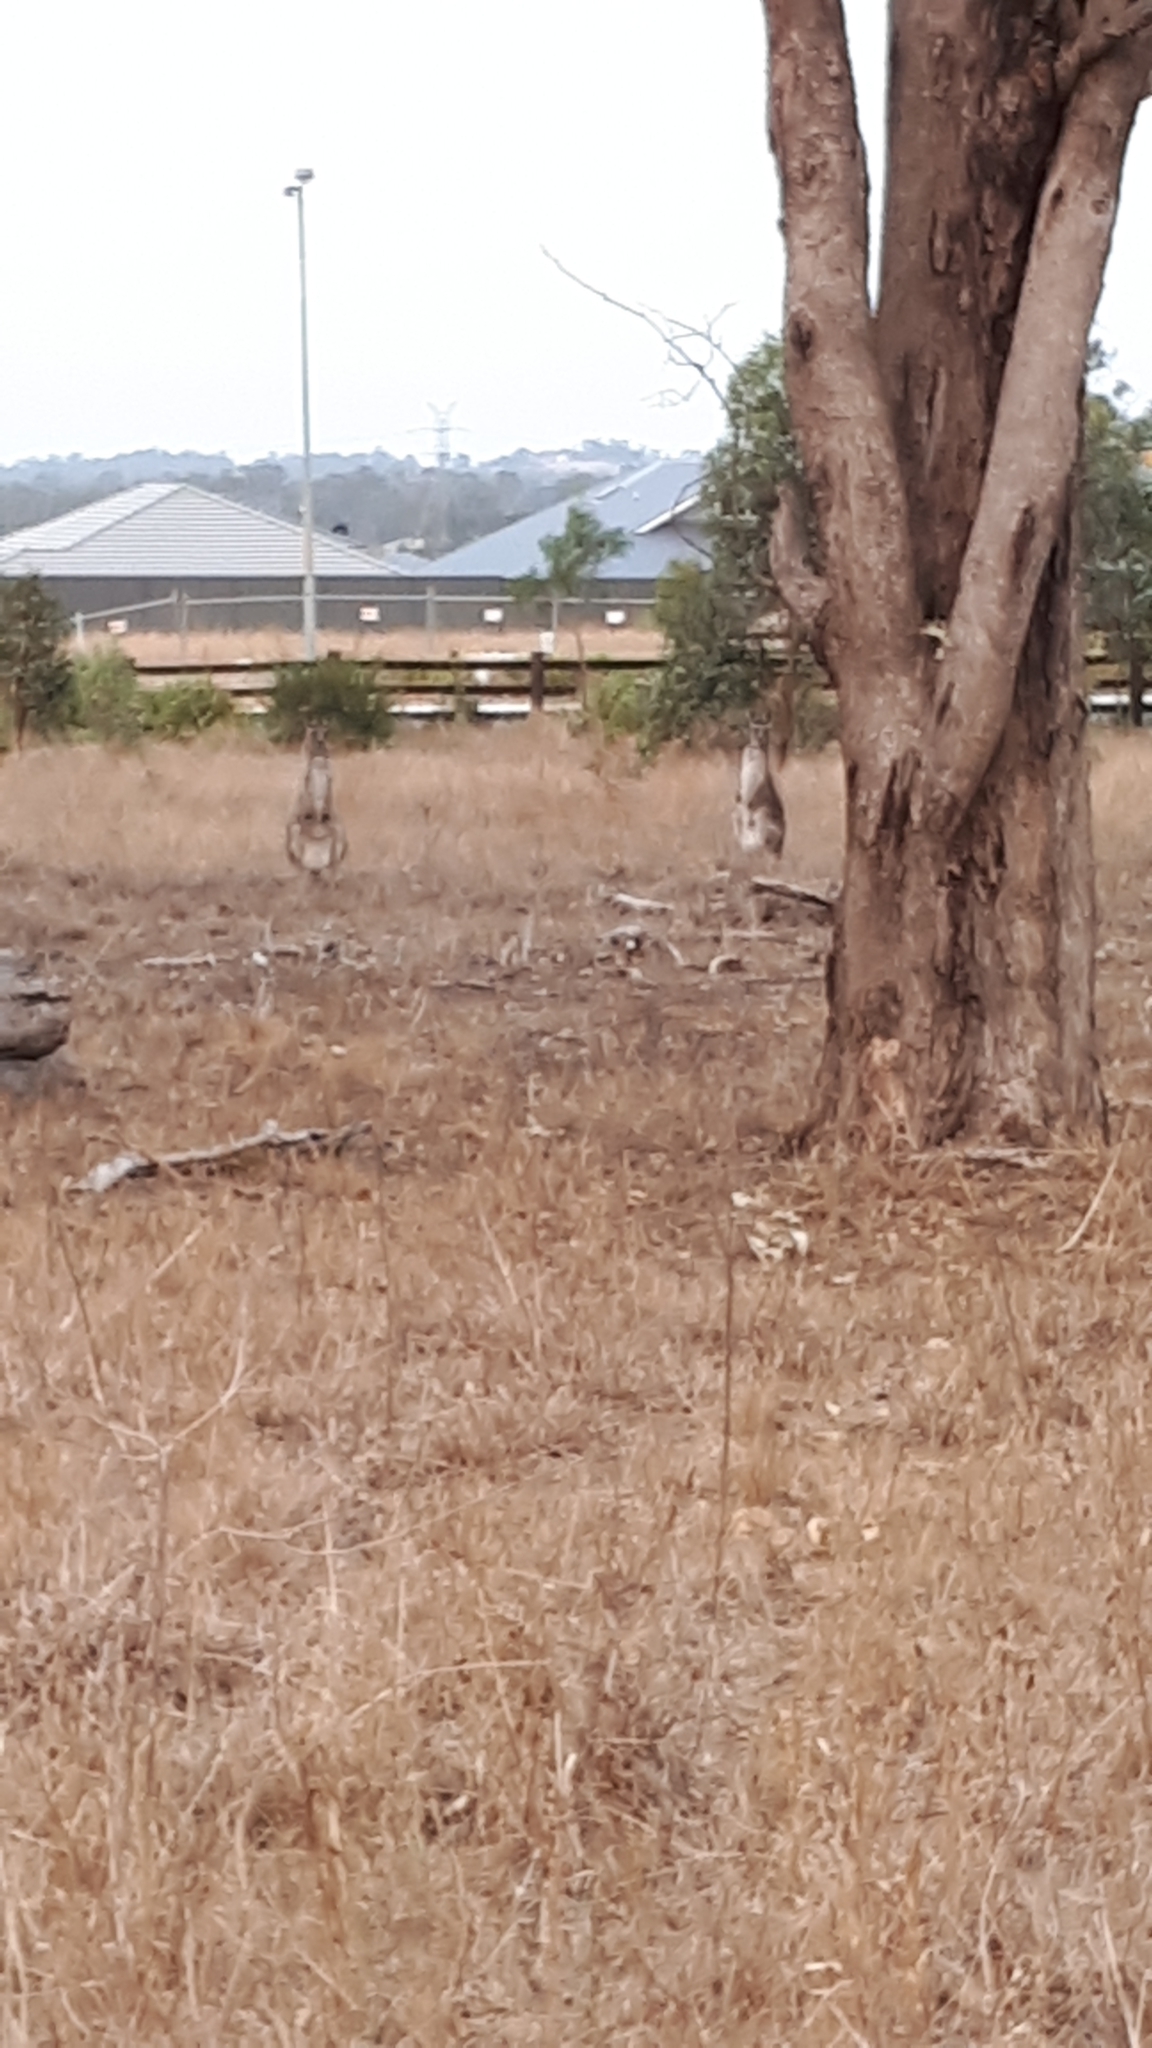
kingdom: Animalia
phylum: Chordata
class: Mammalia
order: Diprotodontia
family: Macropodidae
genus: Macropus
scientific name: Macropus giganteus
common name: Eastern grey kangaroo
